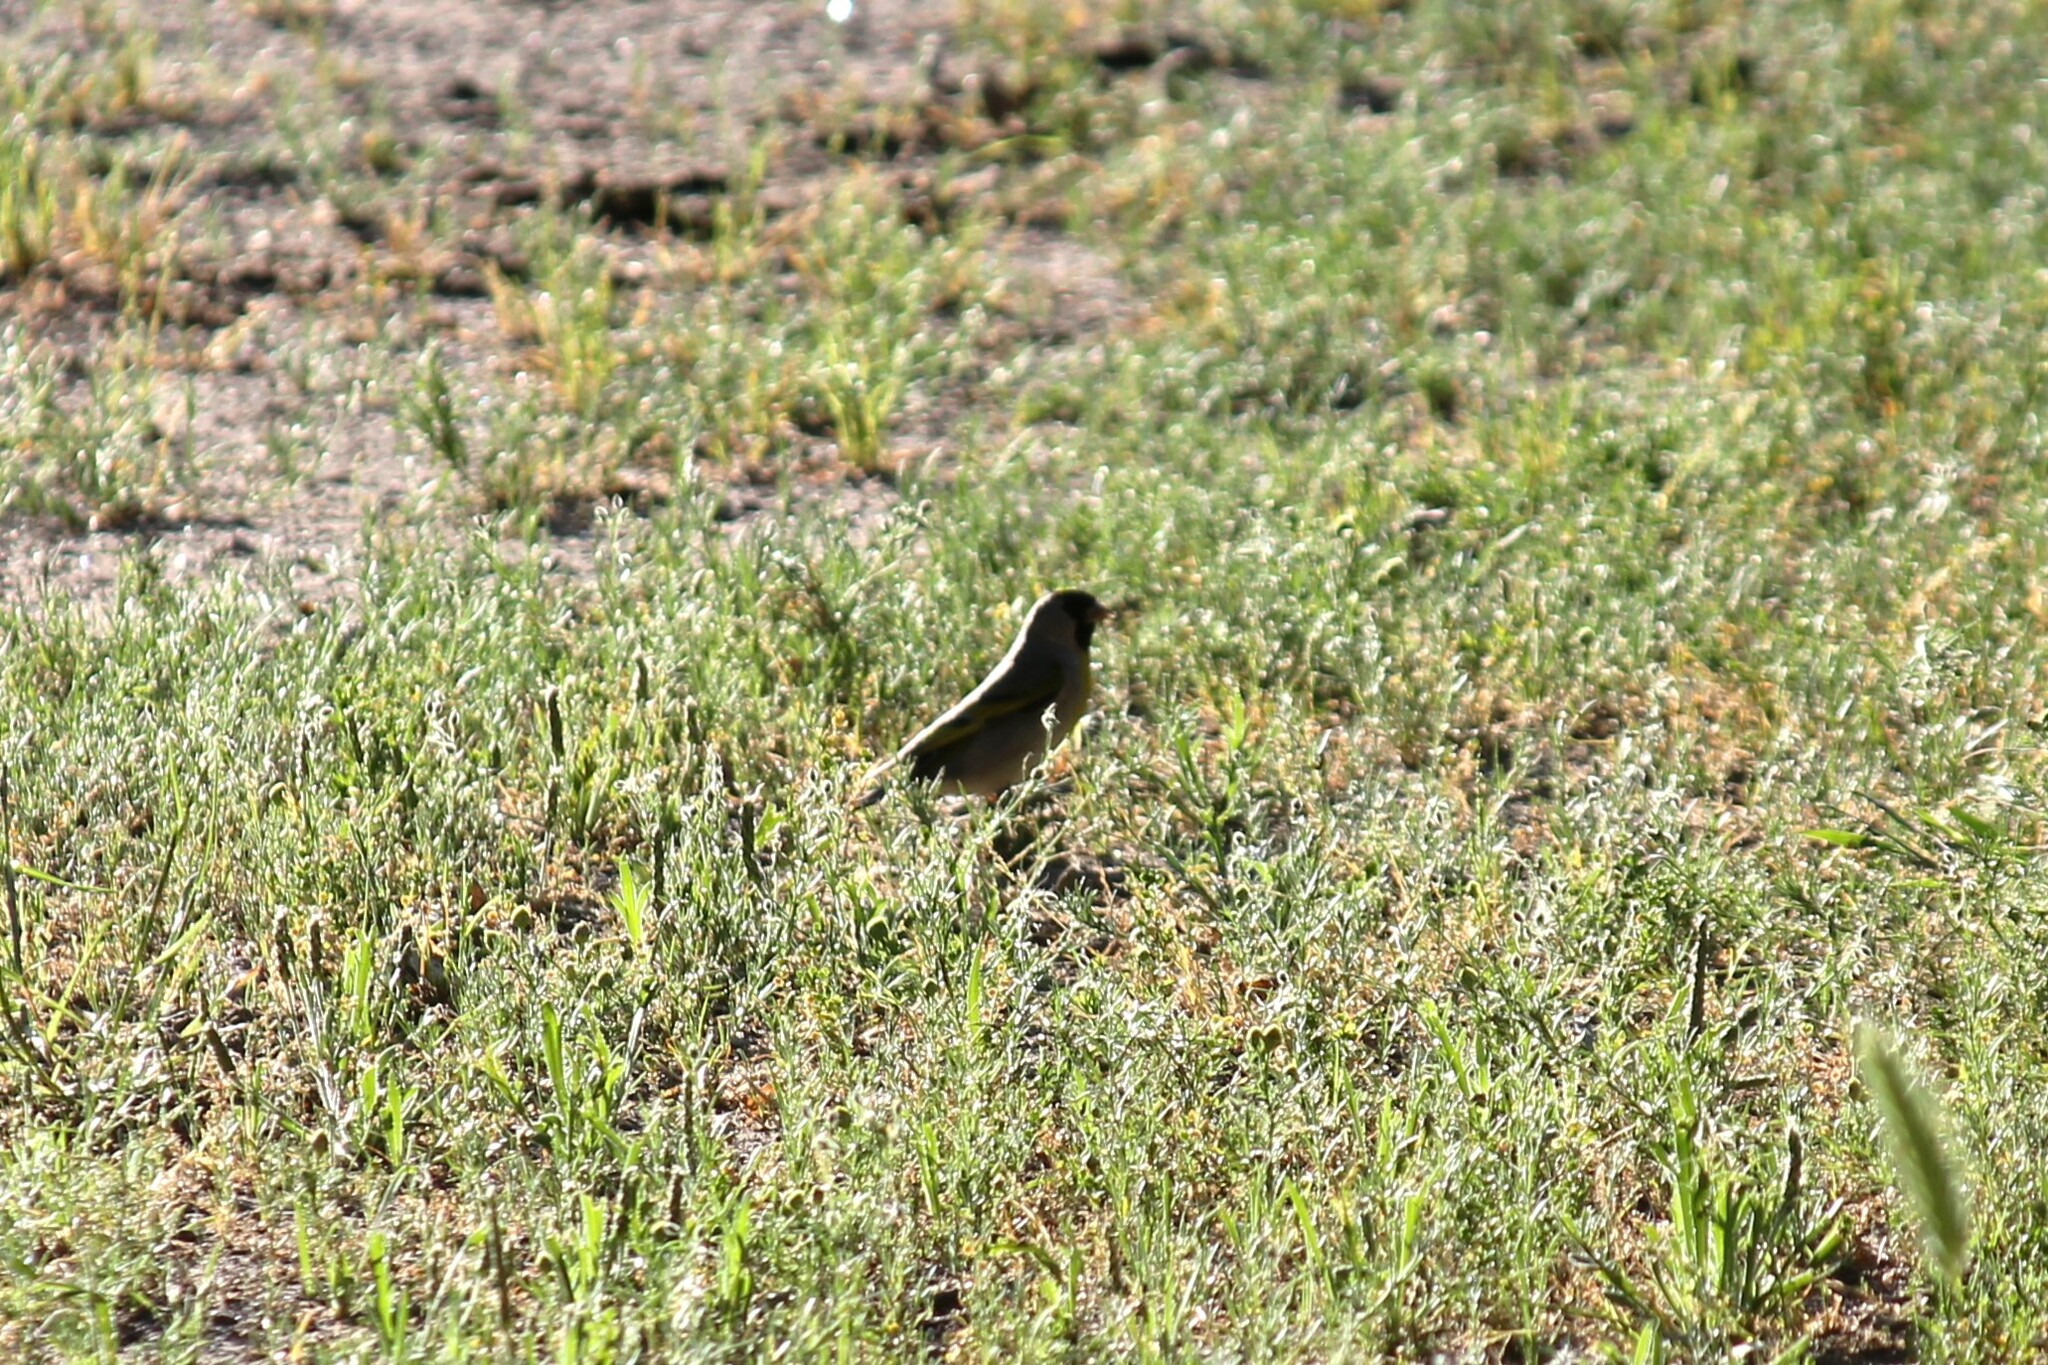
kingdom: Animalia
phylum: Chordata
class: Aves
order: Passeriformes
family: Fringillidae
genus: Spinus
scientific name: Spinus lawrencei
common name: Lawrence's goldfinch
